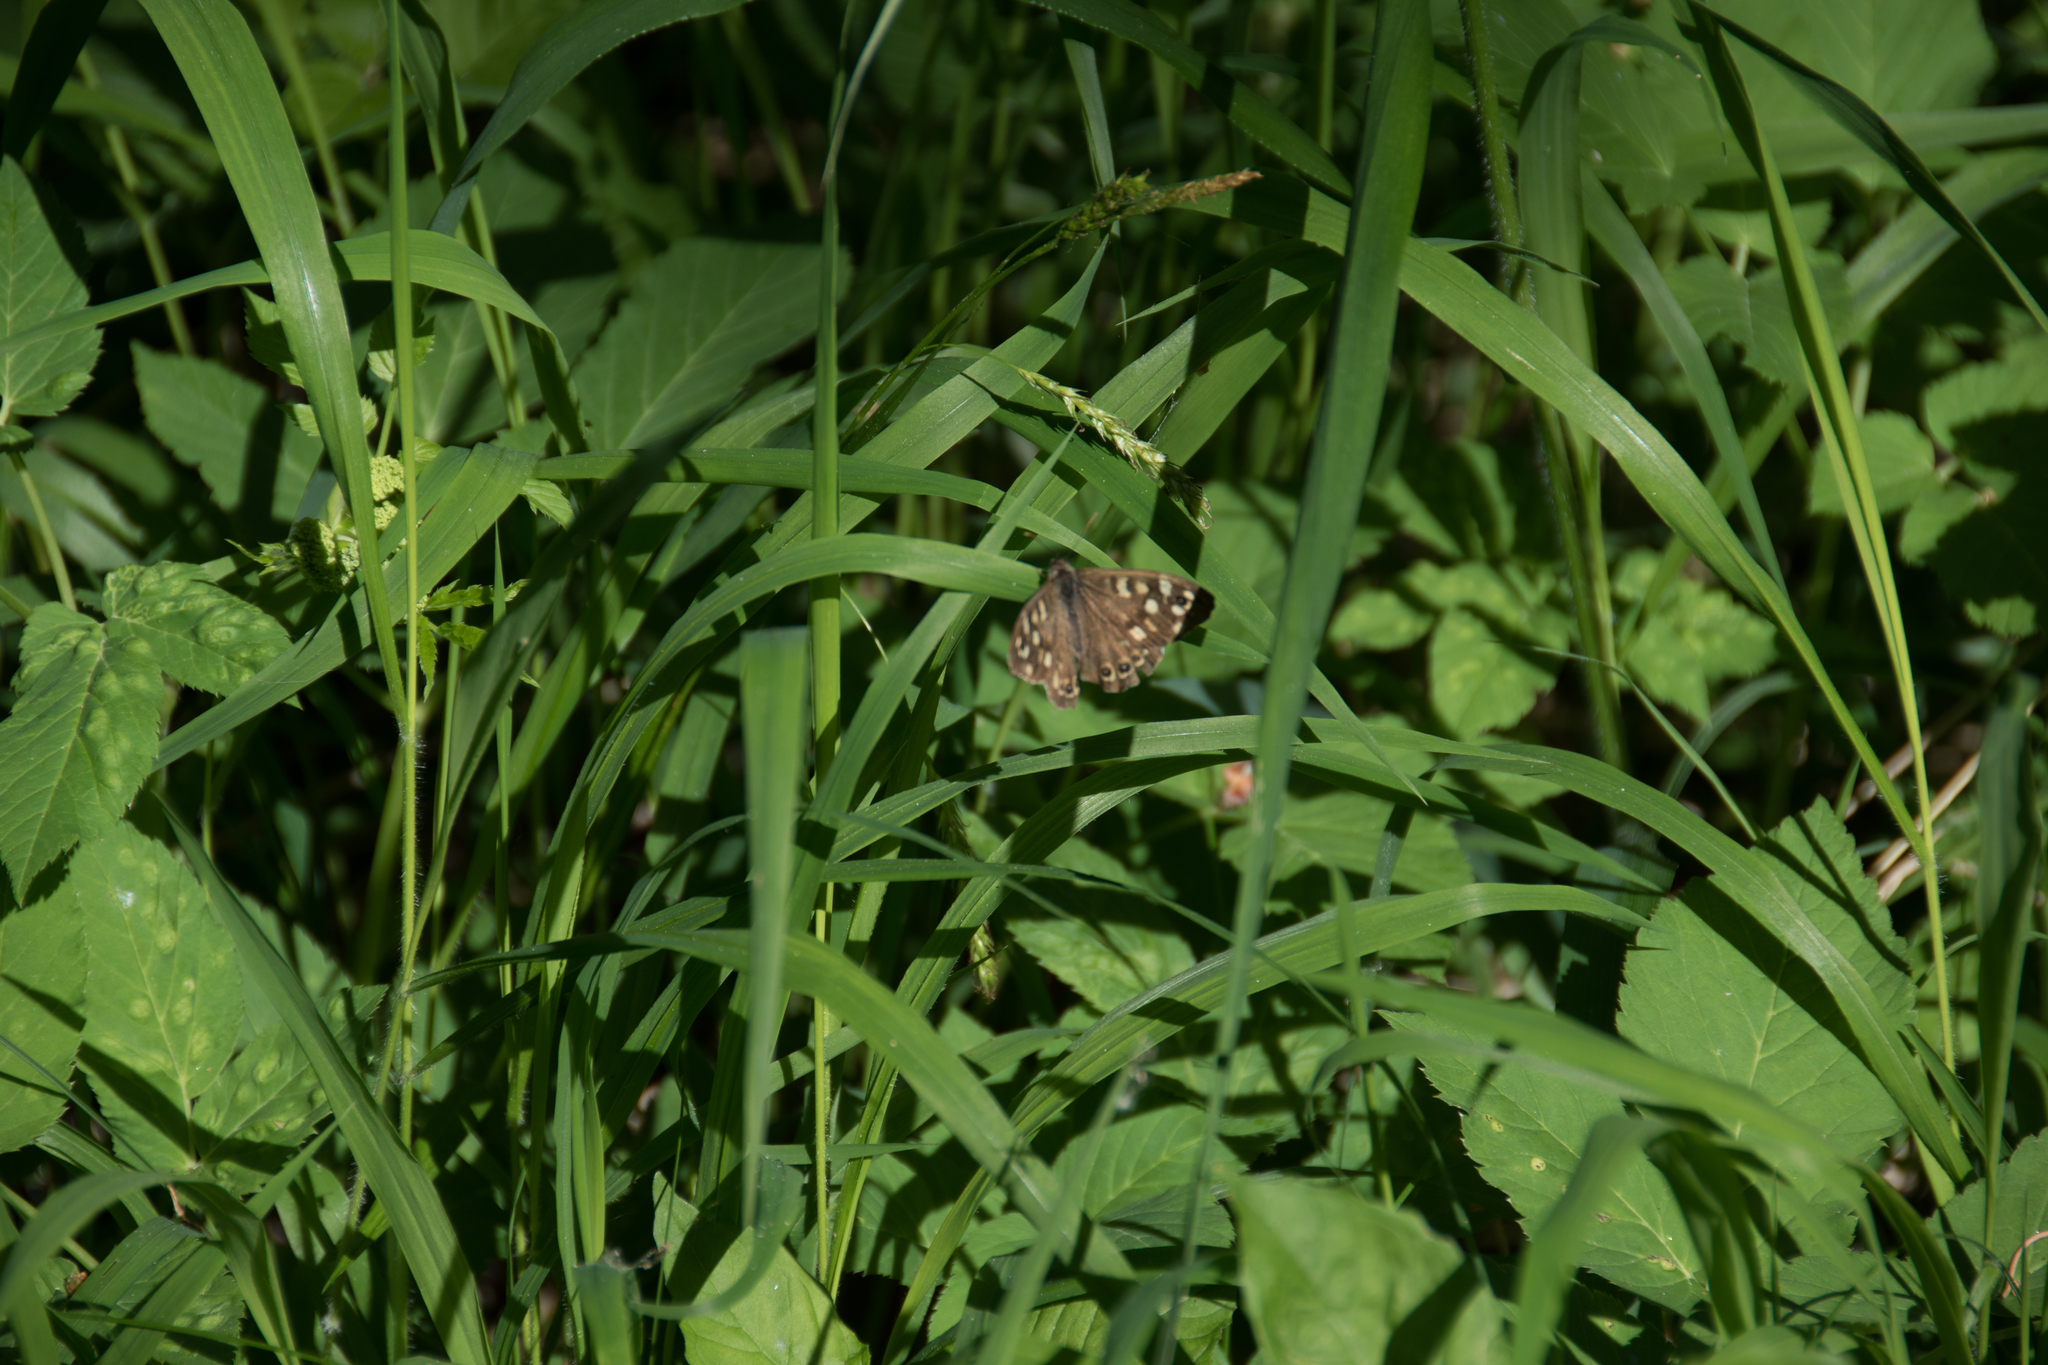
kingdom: Animalia
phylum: Arthropoda
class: Insecta
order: Lepidoptera
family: Nymphalidae
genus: Pararge
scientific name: Pararge aegeria
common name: Speckled wood
